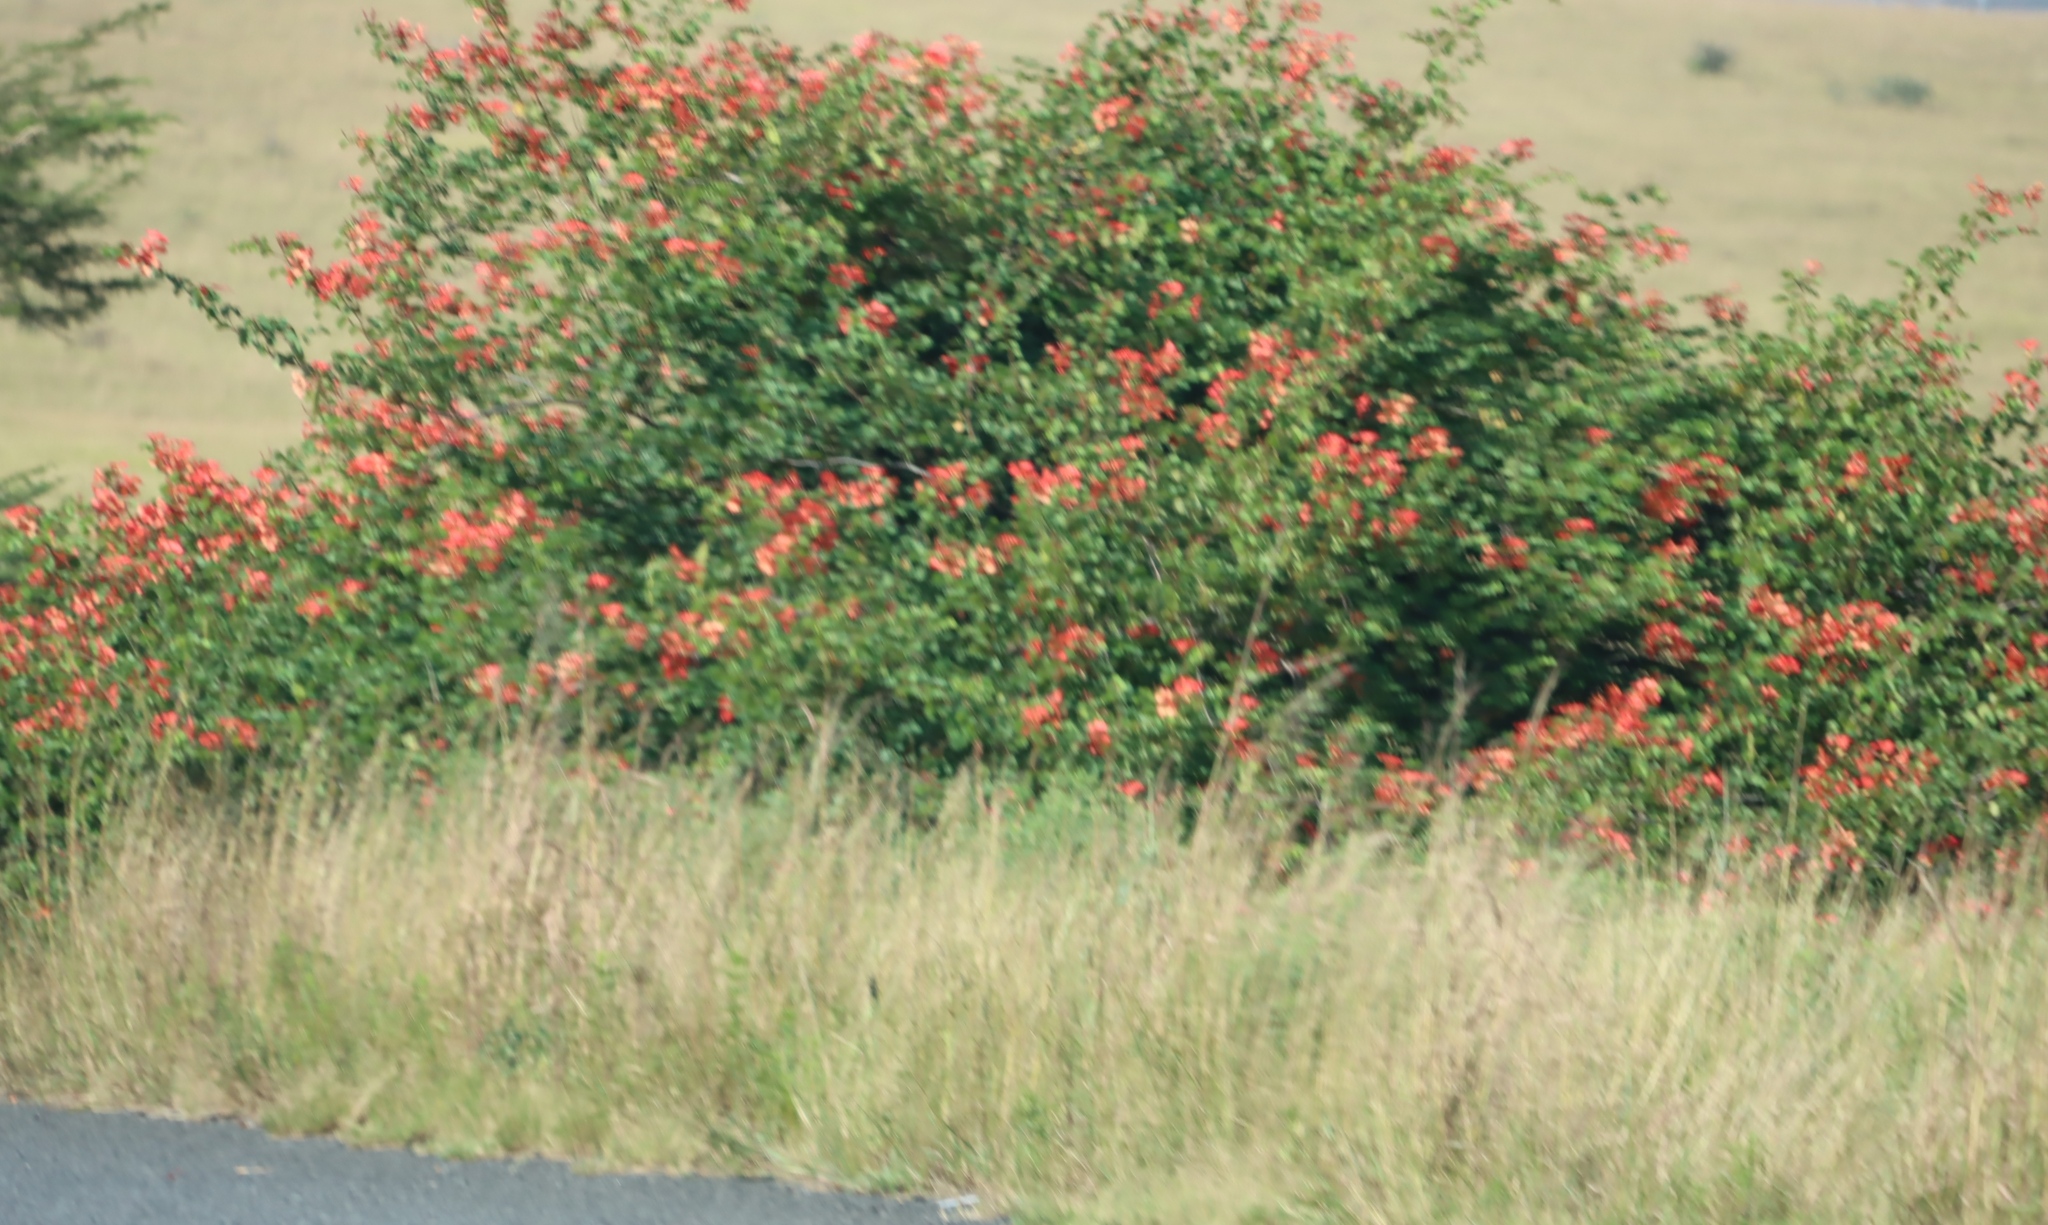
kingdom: Plantae
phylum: Tracheophyta
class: Magnoliopsida
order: Fabales
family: Fabaceae
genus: Bauhinia
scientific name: Bauhinia galpinii
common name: African plume
